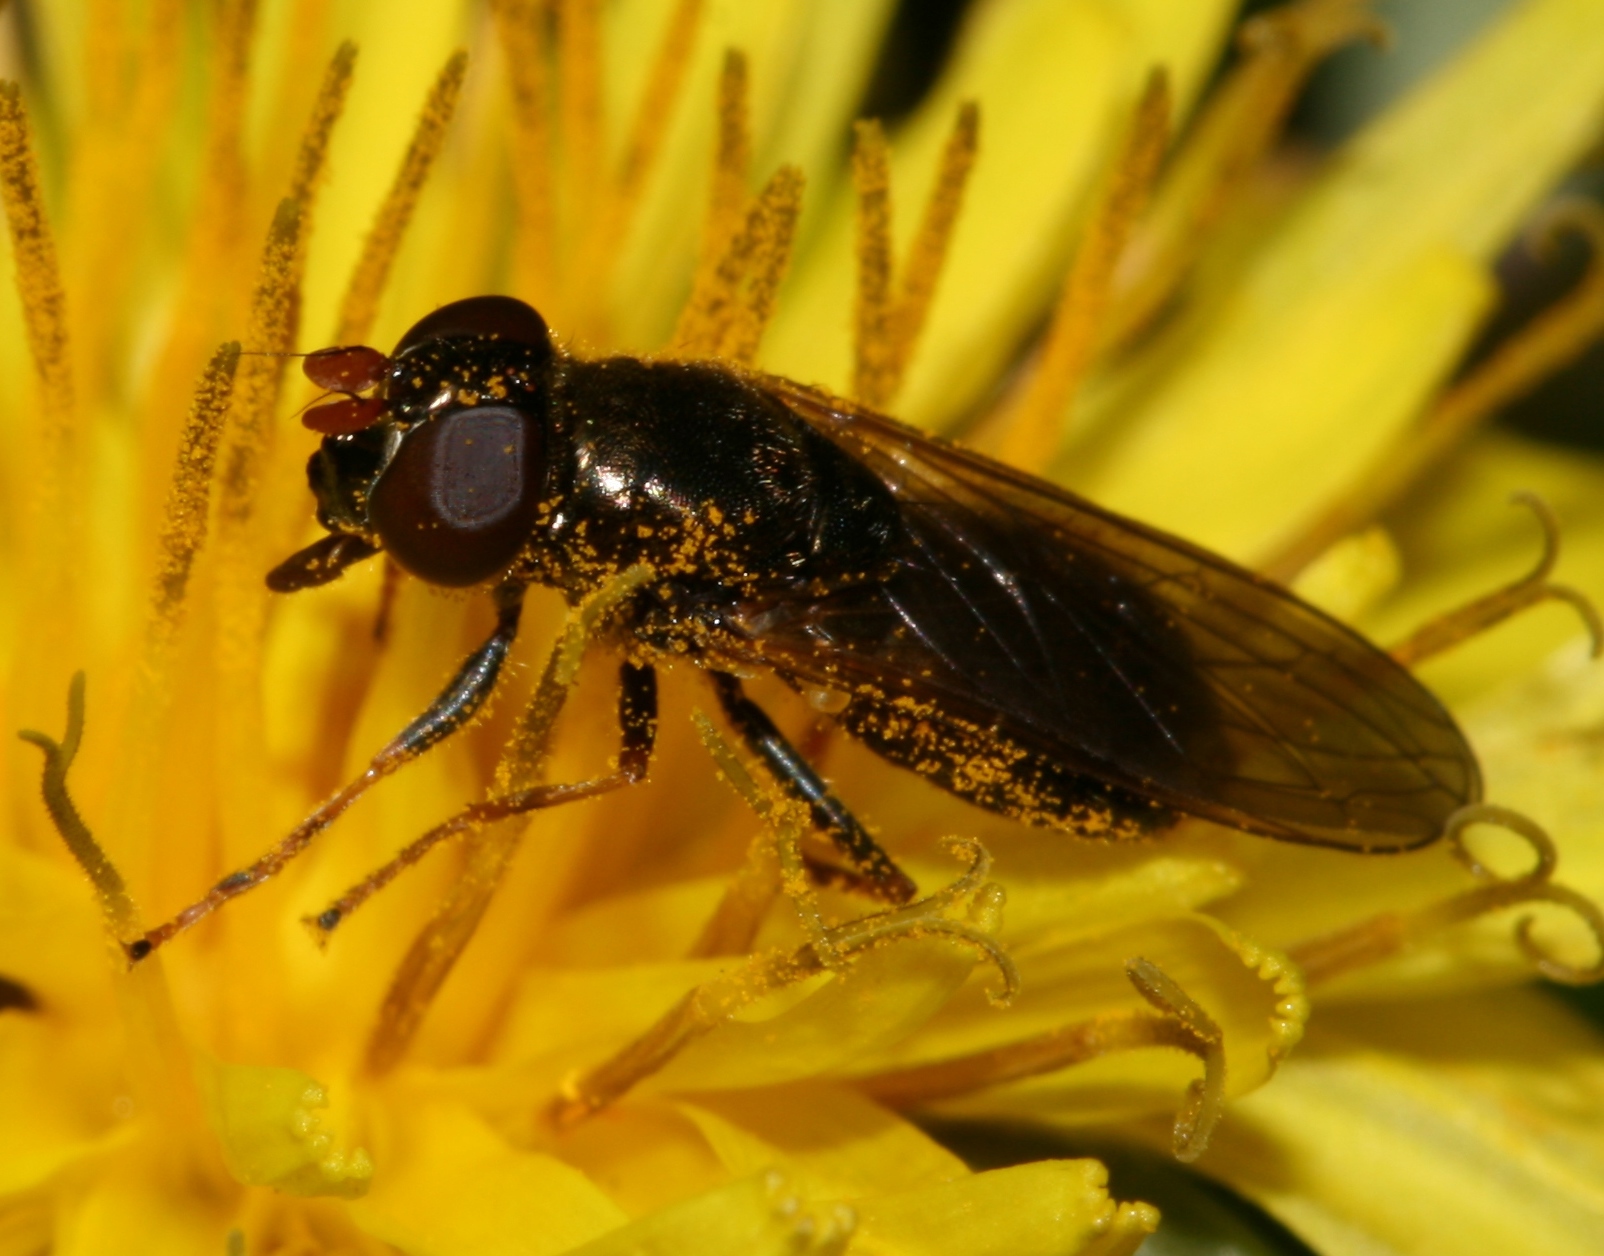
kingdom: Animalia
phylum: Arthropoda
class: Insecta
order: Diptera
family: Syrphidae
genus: Cheilosia
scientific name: Cheilosia pagana
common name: Hover fly
